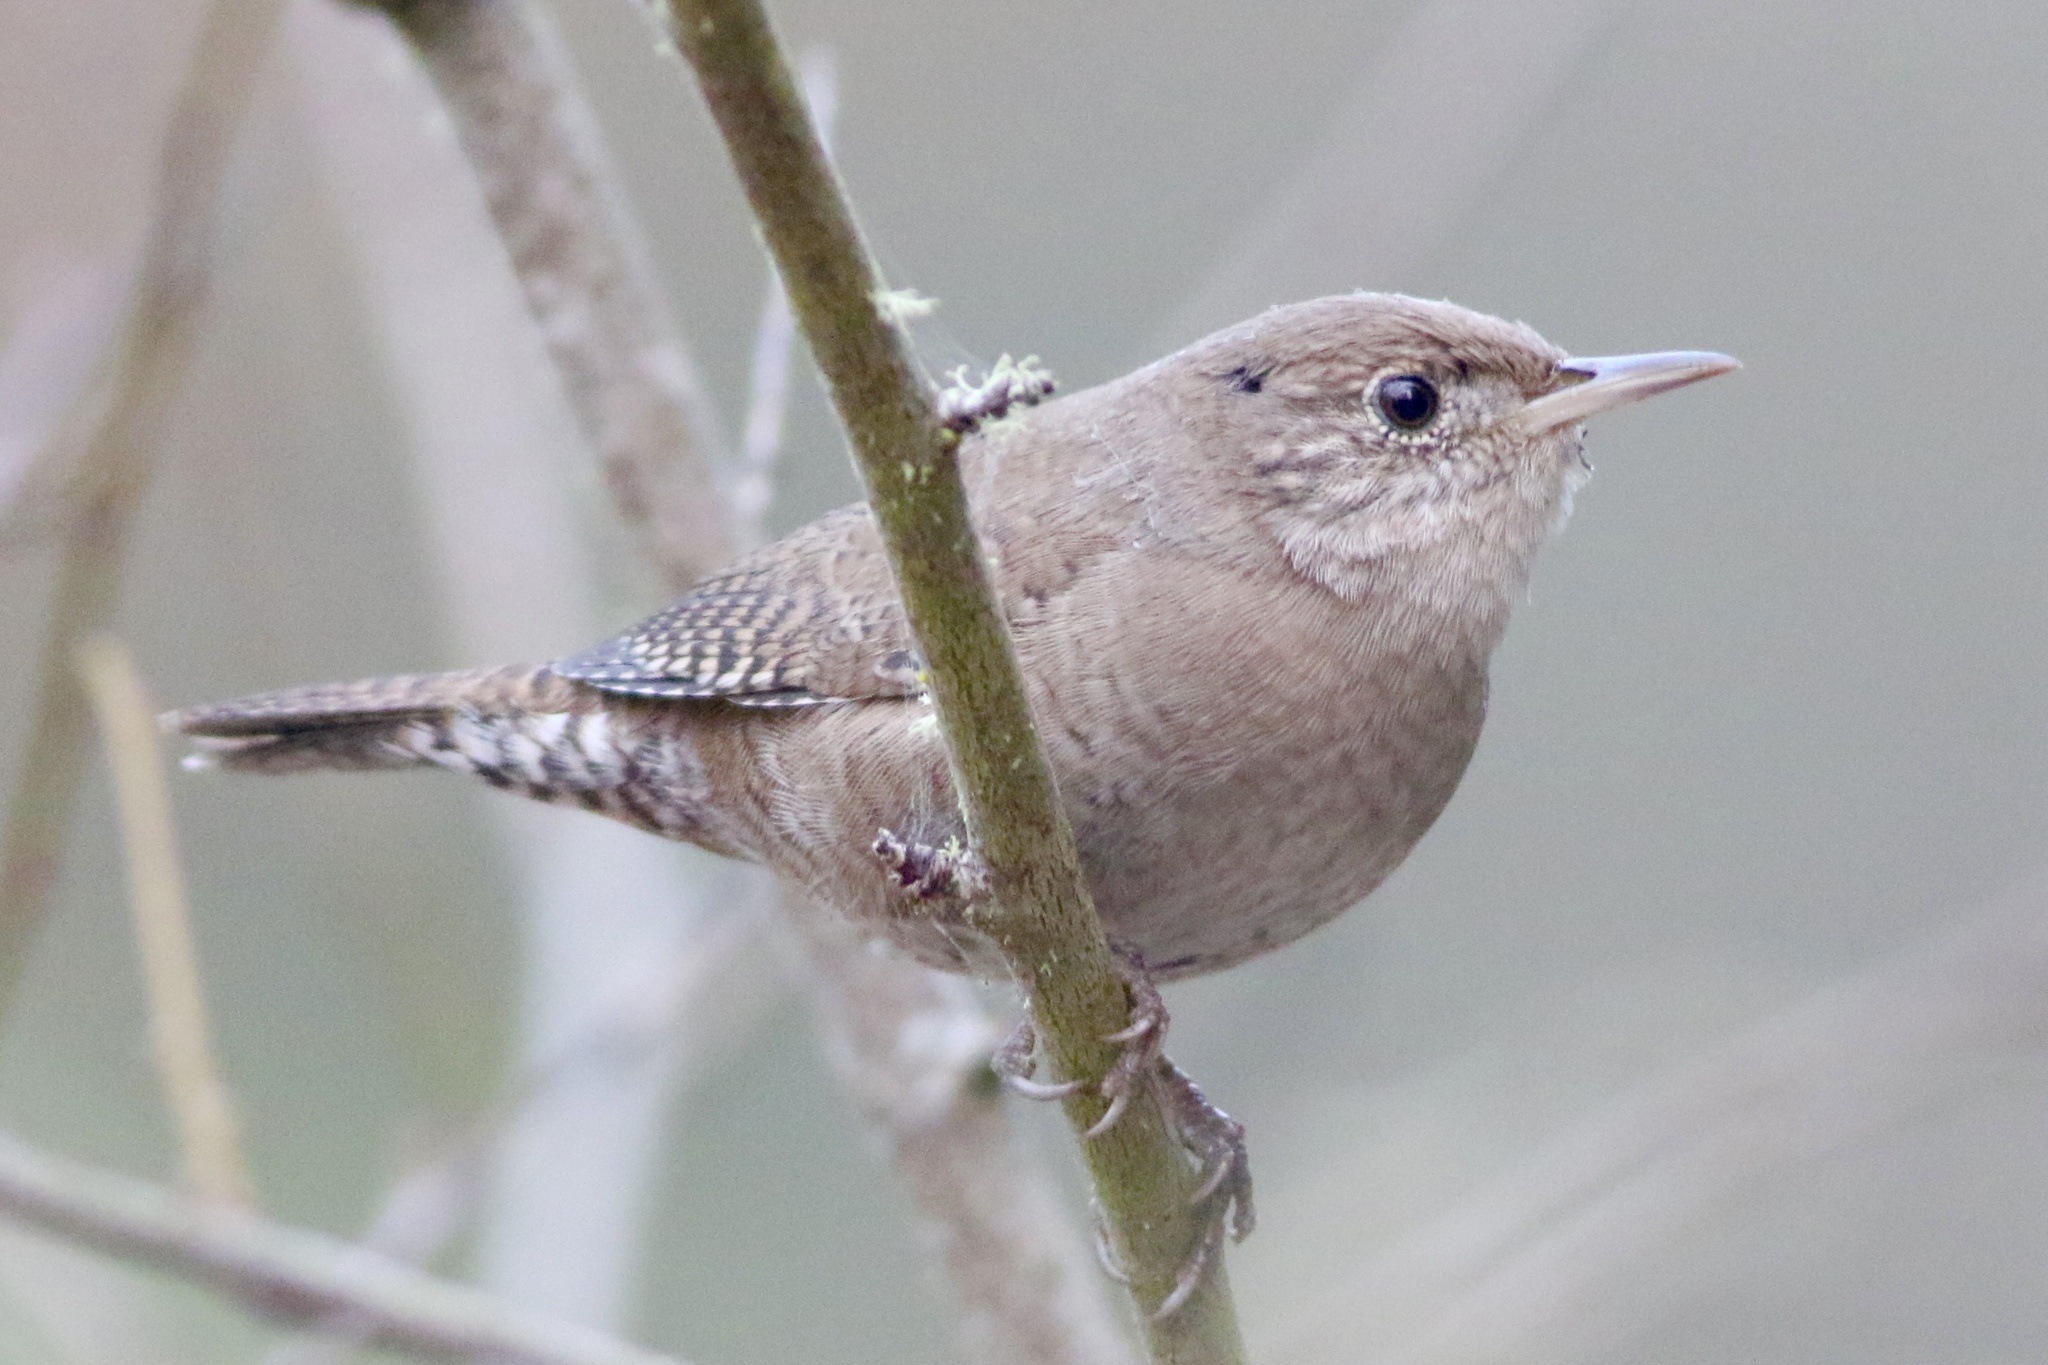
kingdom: Animalia
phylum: Chordata
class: Aves
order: Passeriformes
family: Troglodytidae
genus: Troglodytes
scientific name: Troglodytes aedon
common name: House wren
